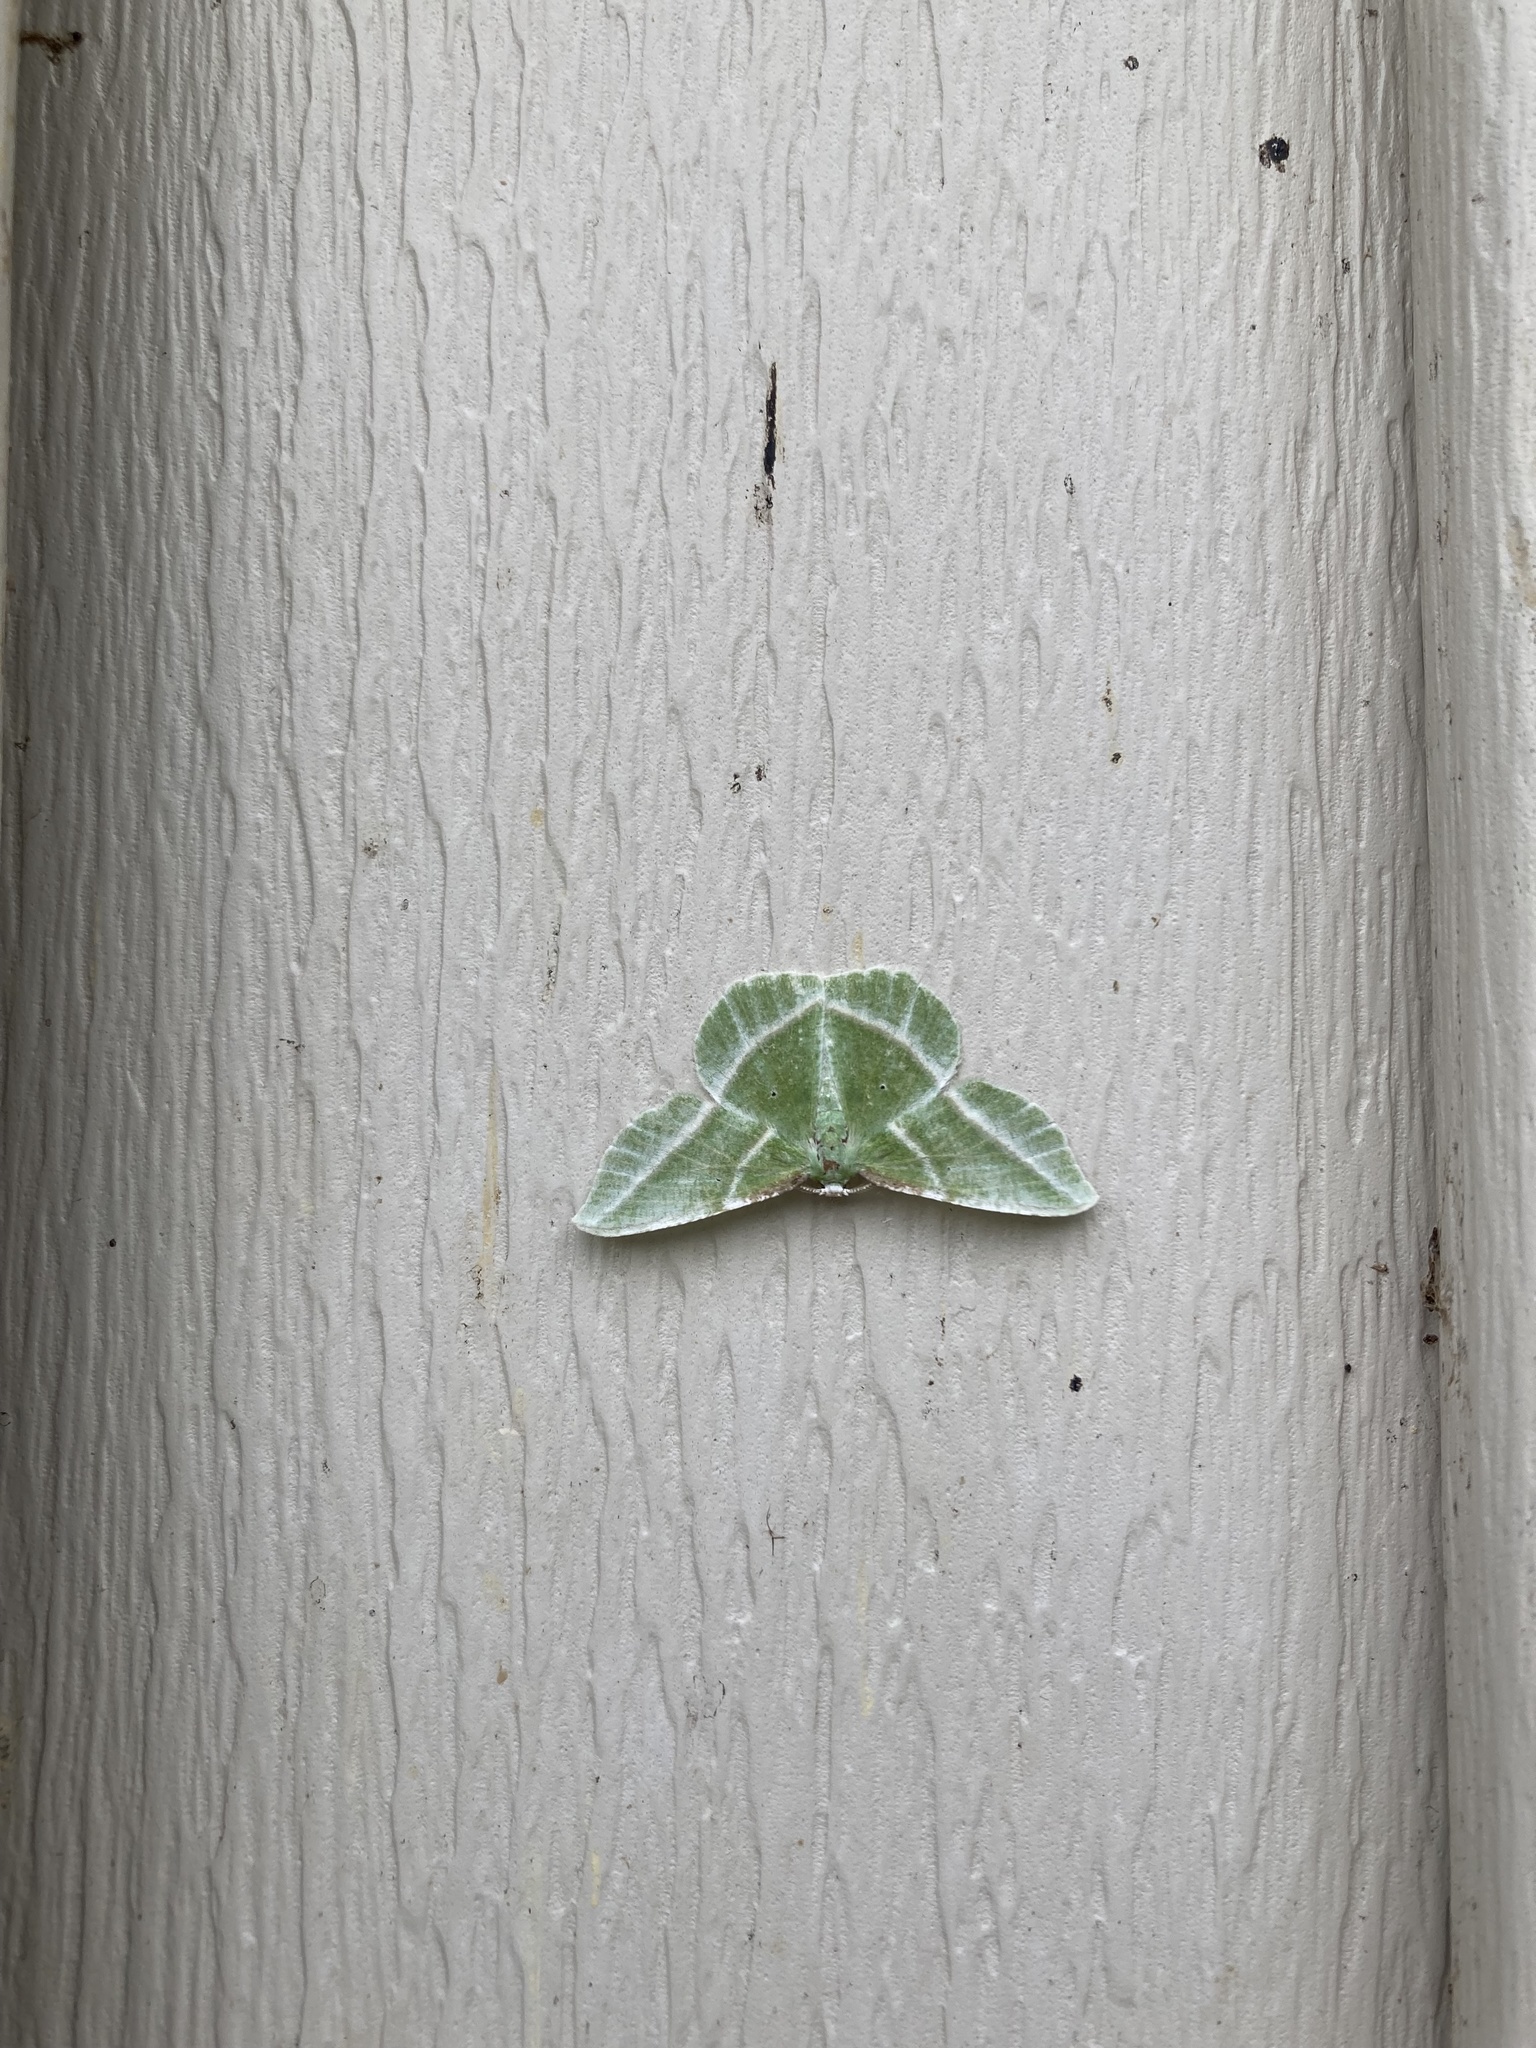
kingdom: Animalia
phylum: Arthropoda
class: Insecta
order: Lepidoptera
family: Geometridae
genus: Dichorda
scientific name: Dichorda iridaria
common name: Showy emerald
